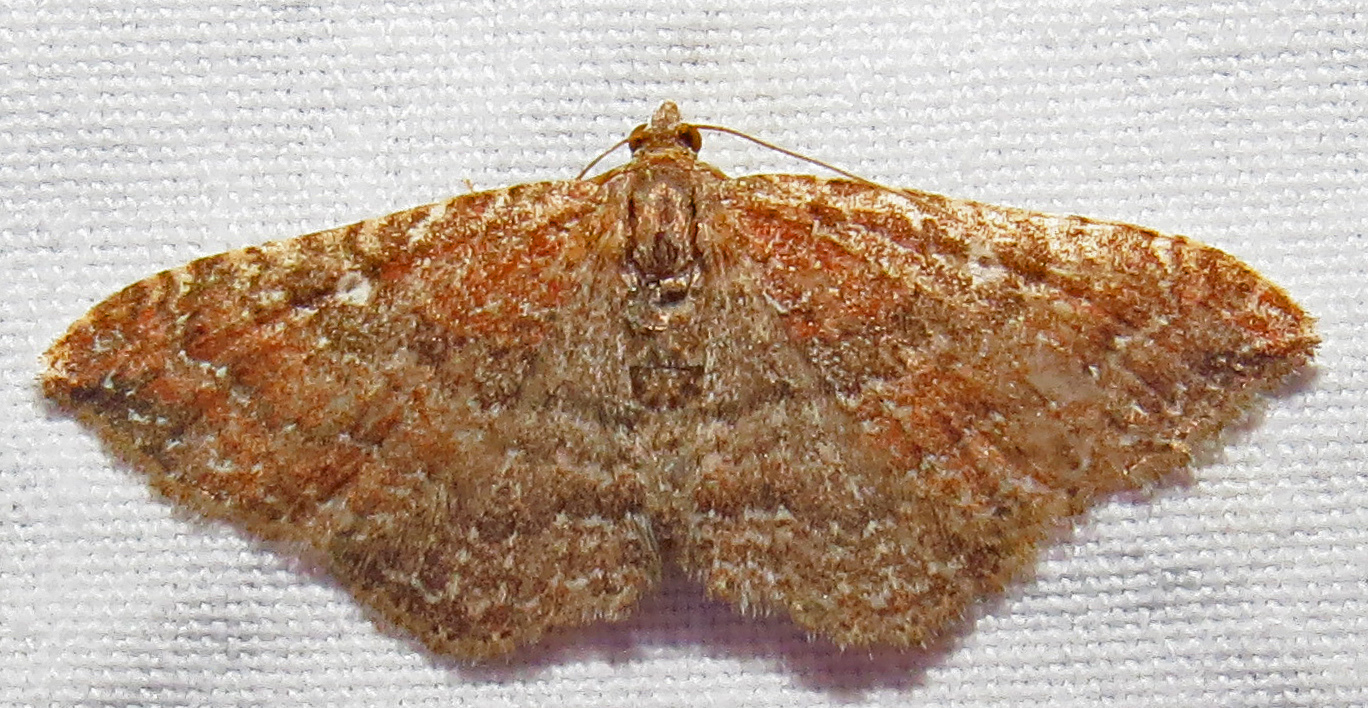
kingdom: Animalia
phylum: Arthropoda
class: Insecta
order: Lepidoptera
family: Geometridae
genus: Orthonama
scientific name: Orthonama obstipata
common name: The gem
